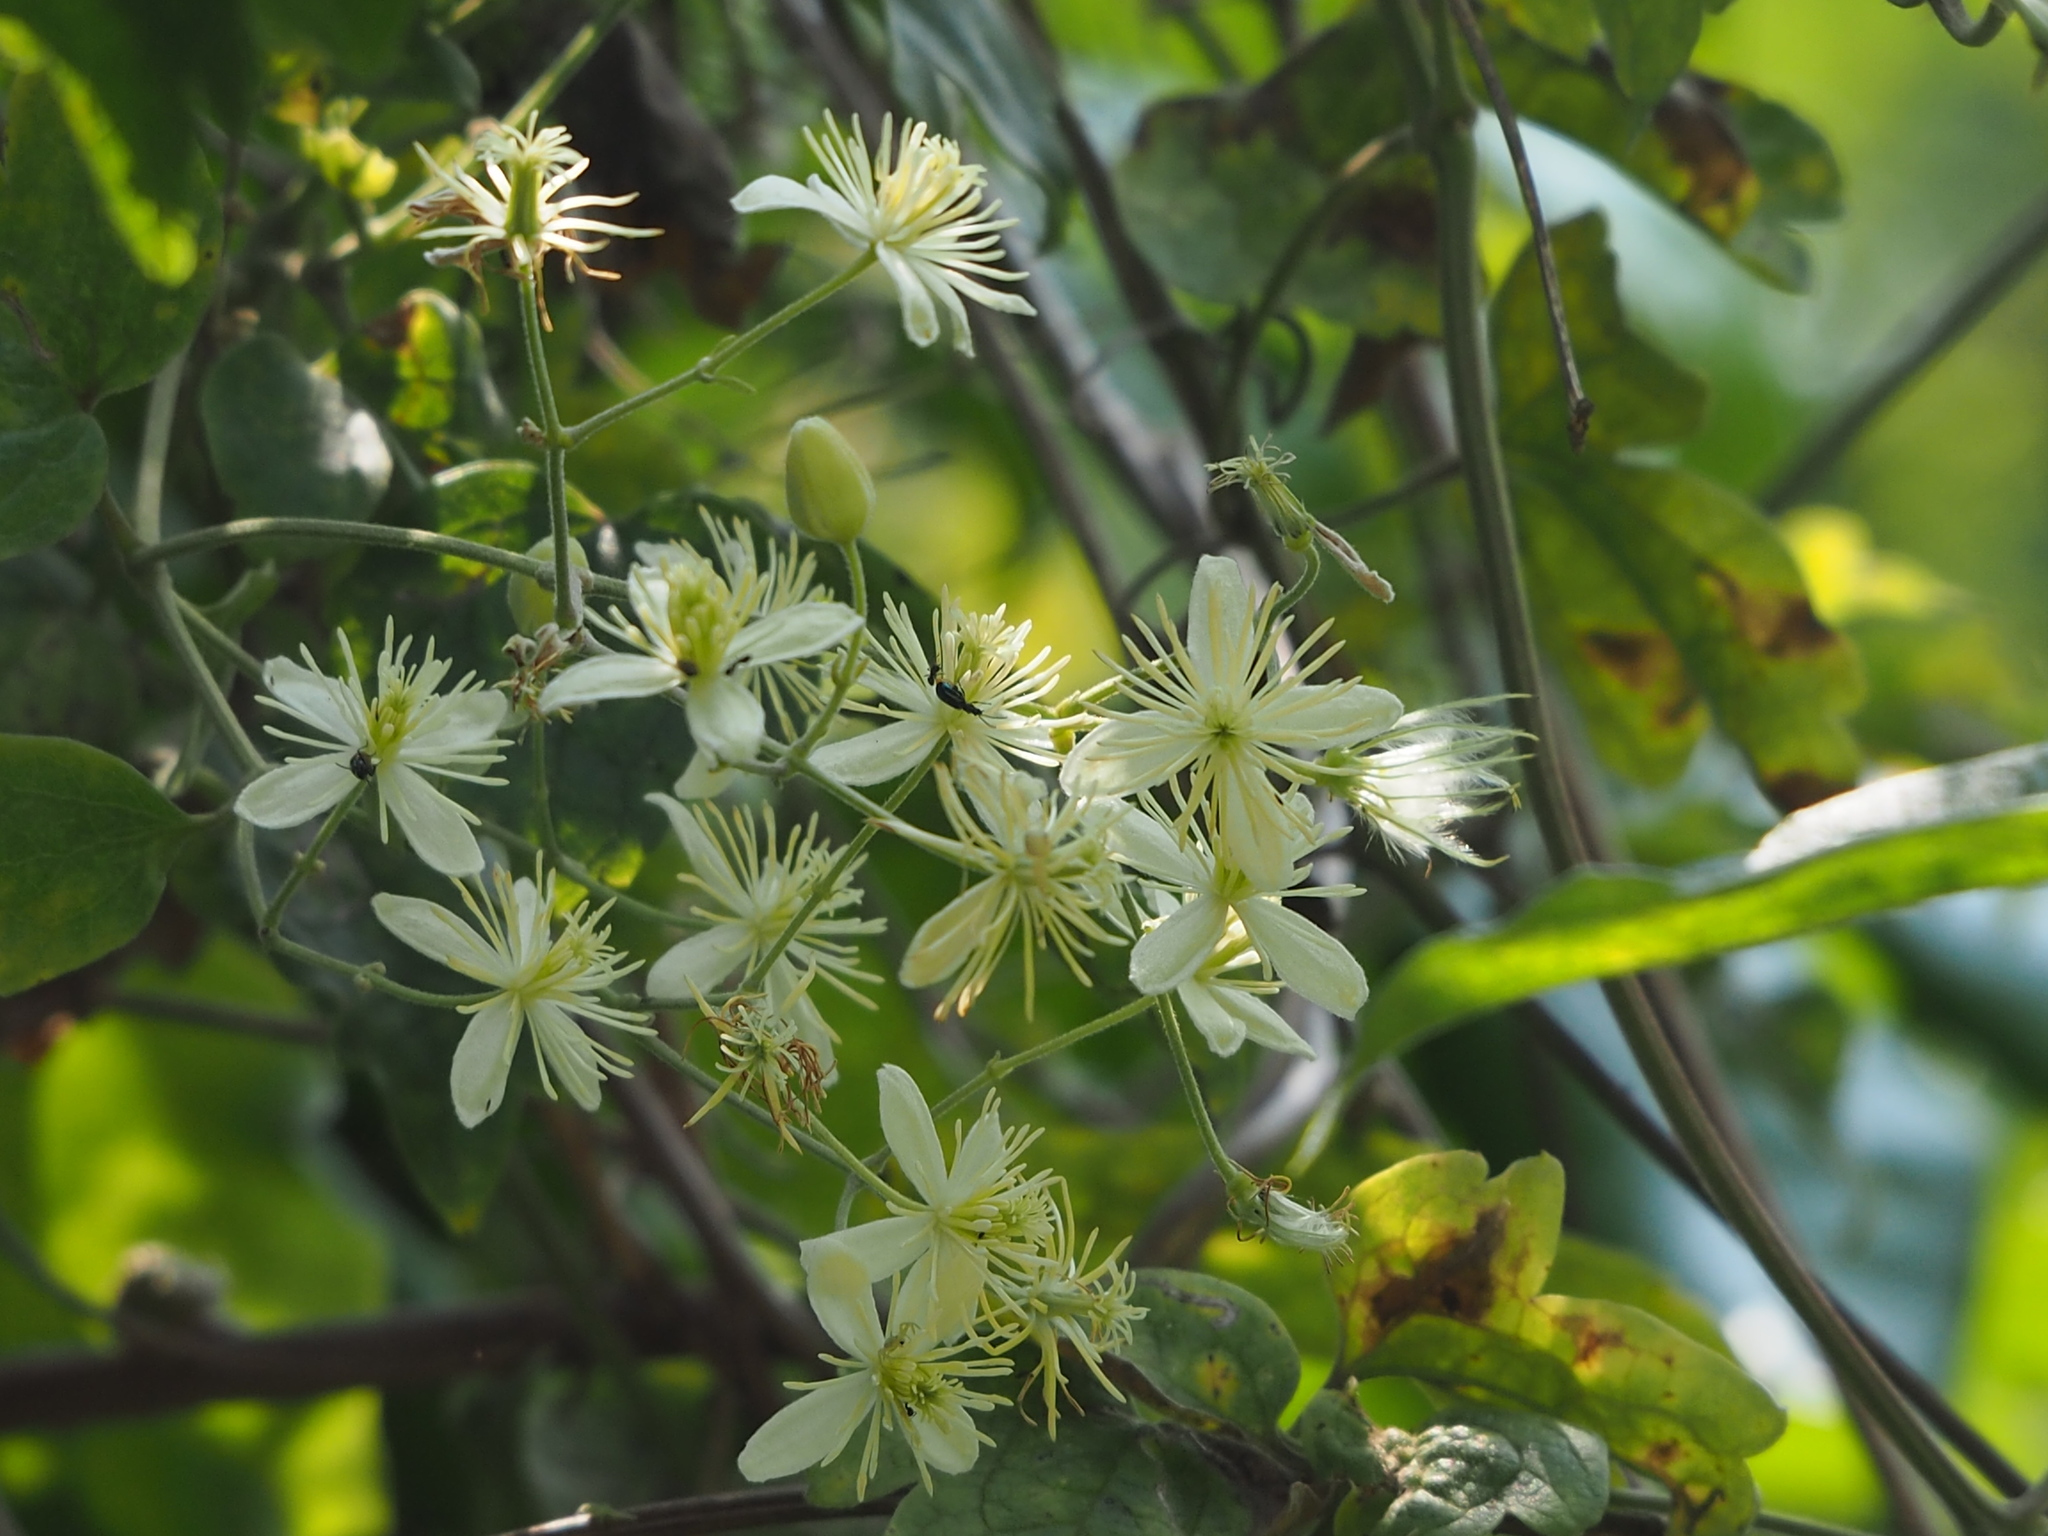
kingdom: Plantae
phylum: Tracheophyta
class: Magnoliopsida
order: Ranunculales
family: Ranunculaceae
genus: Clematis
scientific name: Clematis grata
